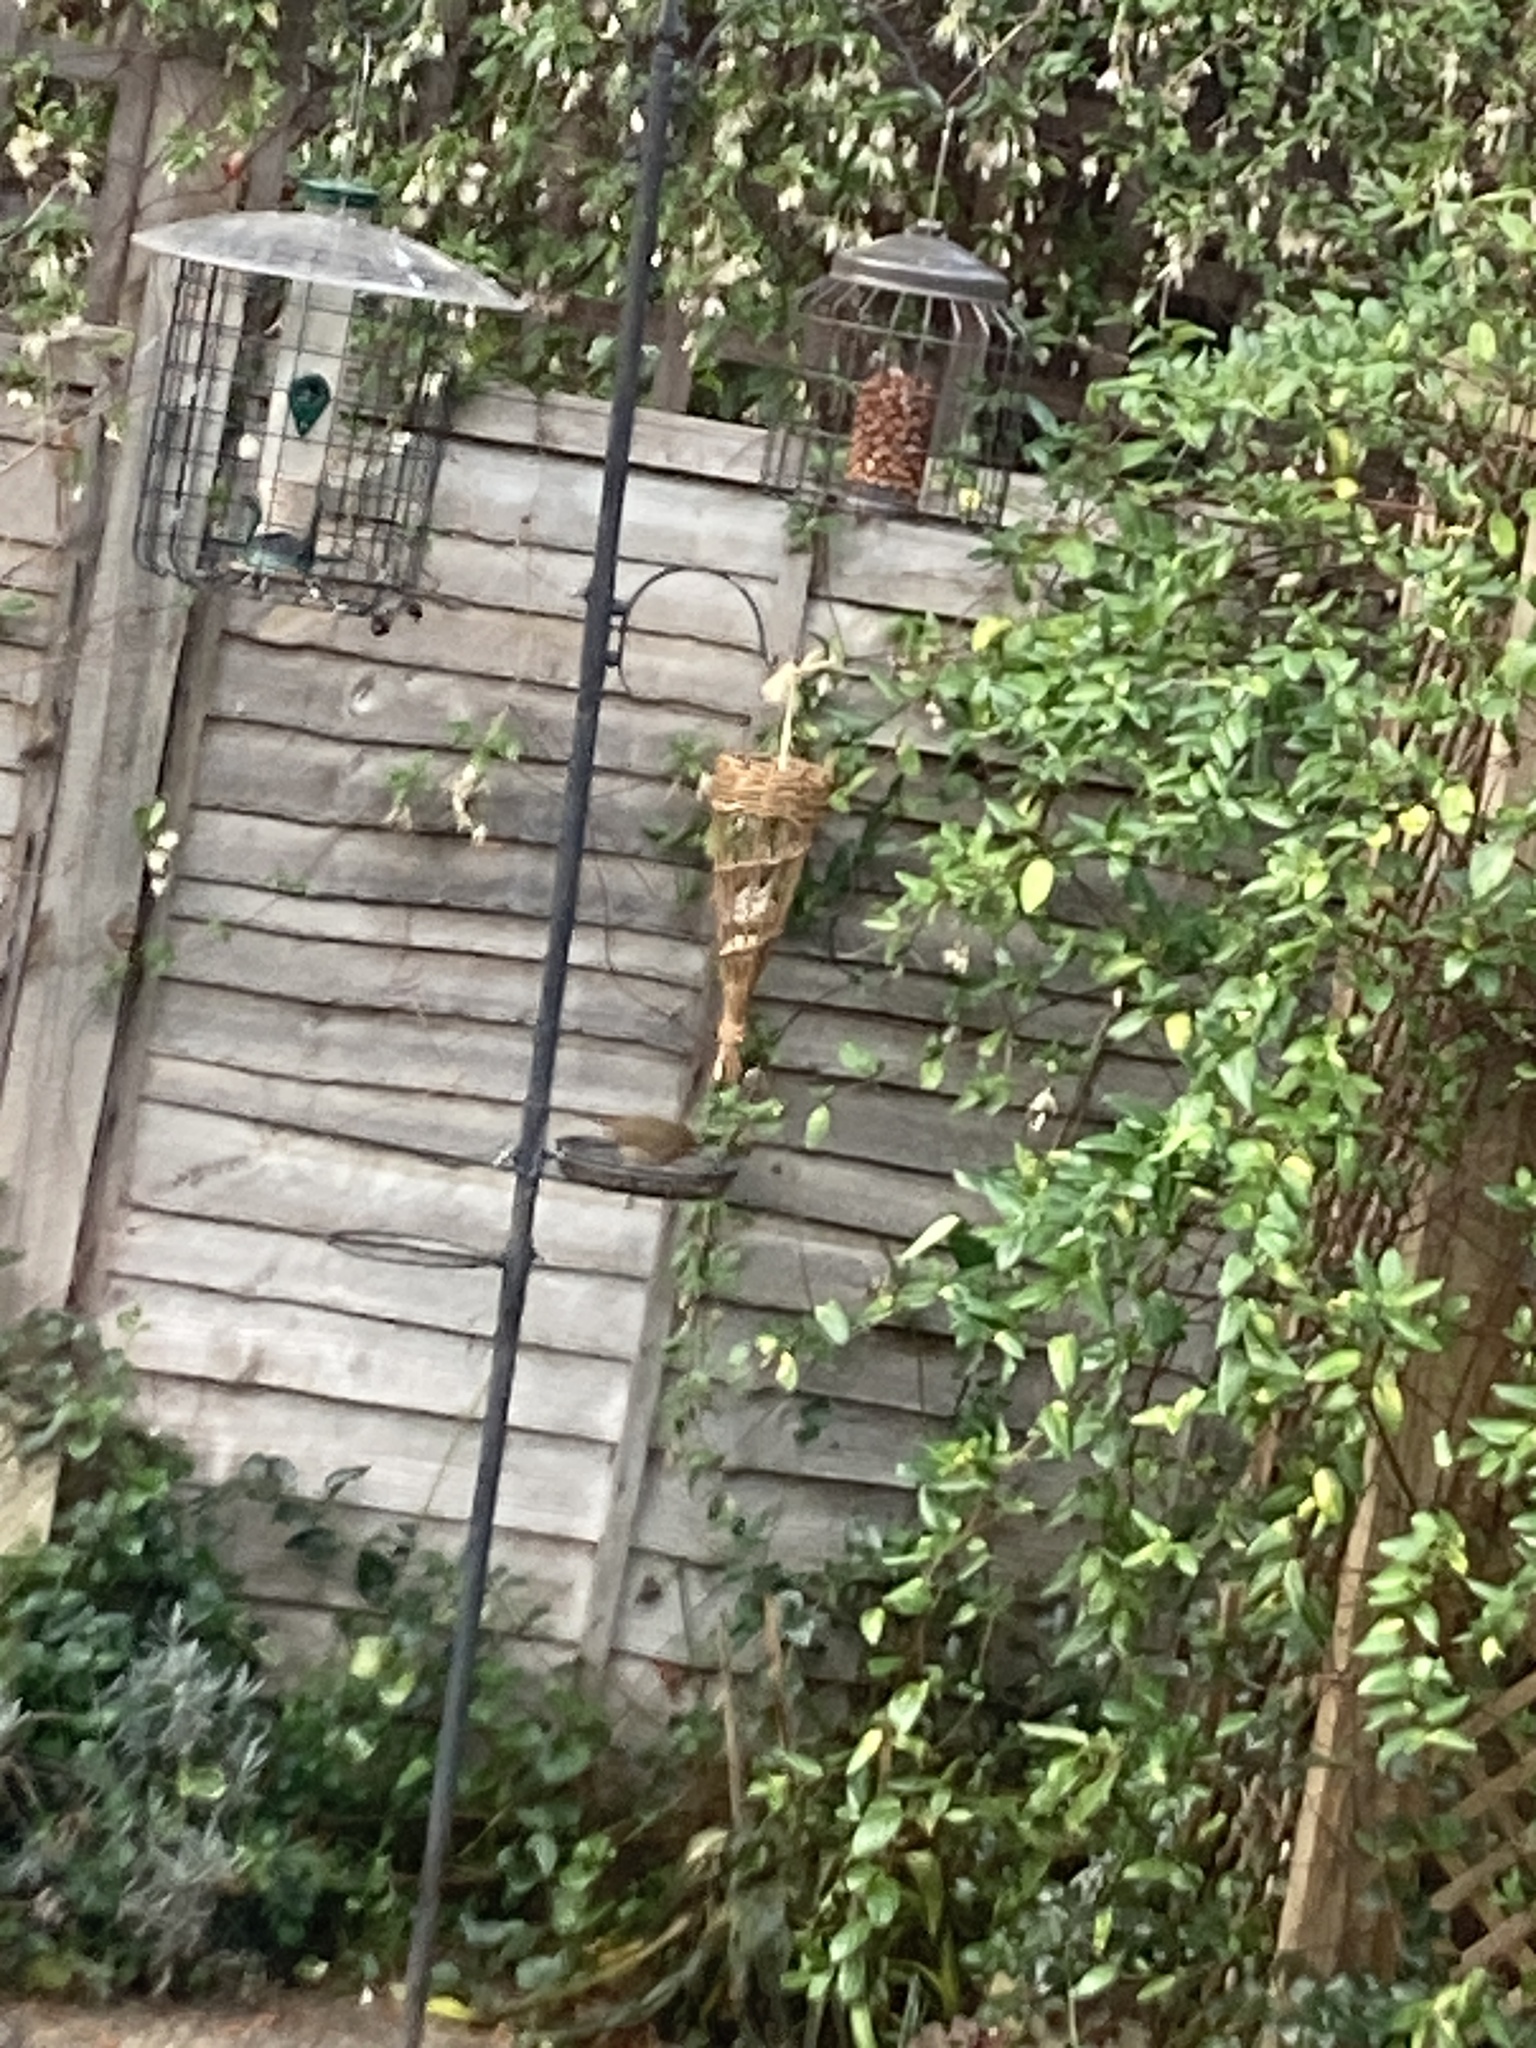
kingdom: Animalia
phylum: Chordata
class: Aves
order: Passeriformes
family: Muscicapidae
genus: Erithacus
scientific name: Erithacus rubecula
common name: European robin
